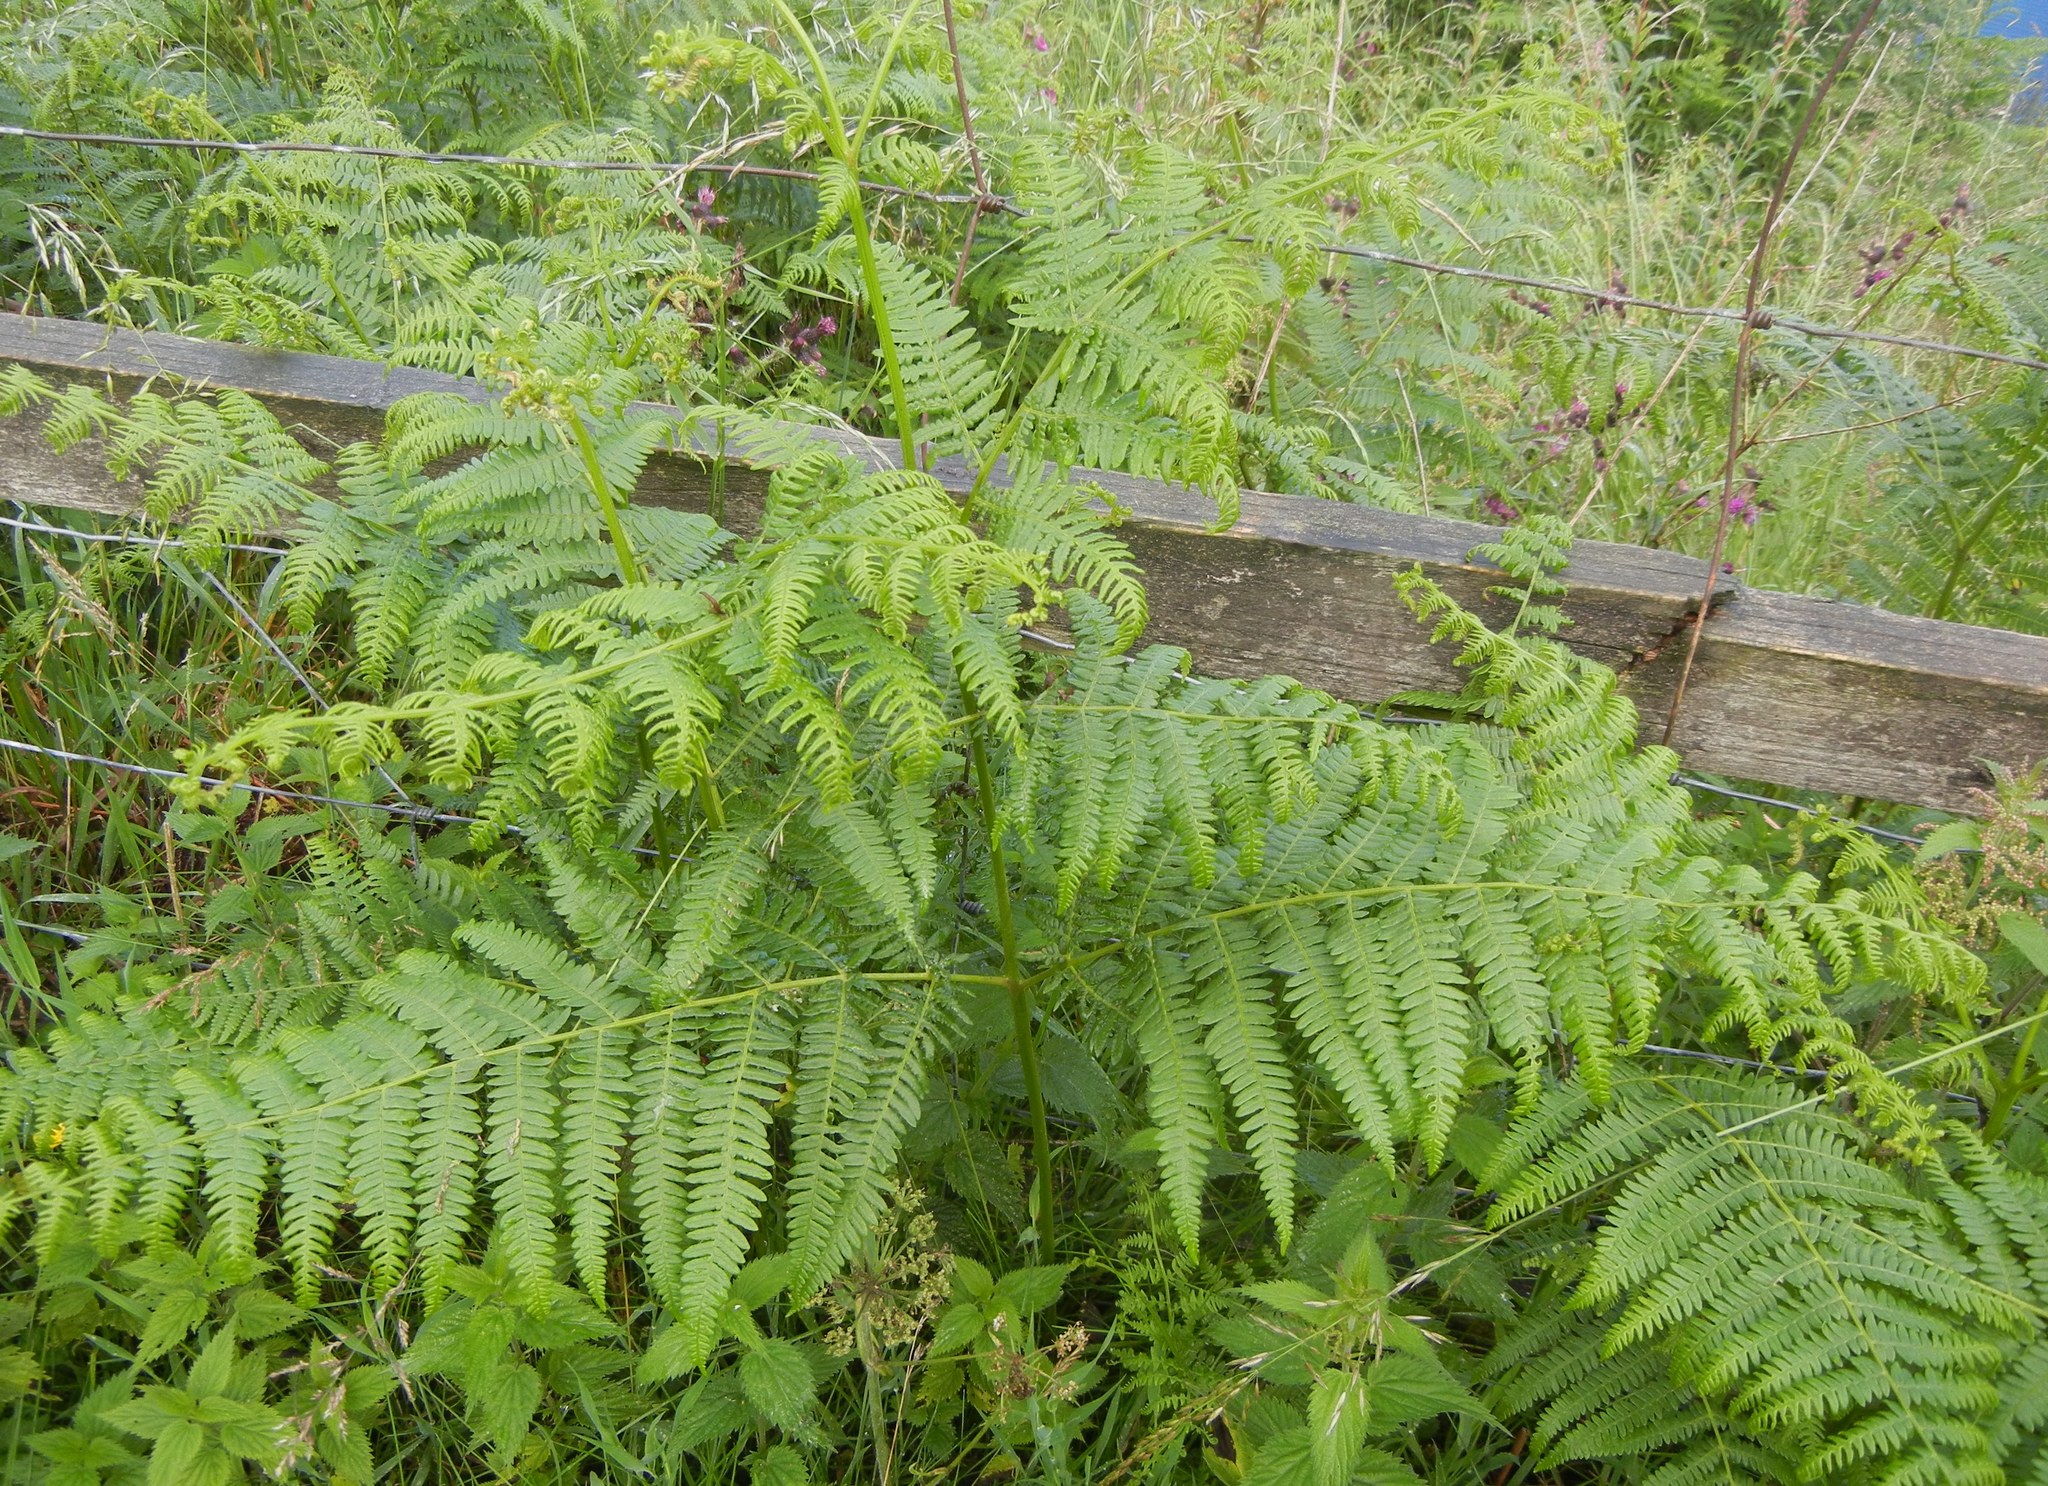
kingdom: Plantae
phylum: Tracheophyta
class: Polypodiopsida
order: Polypodiales
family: Dennstaedtiaceae
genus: Pteridium
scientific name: Pteridium aquilinum
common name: Bracken
